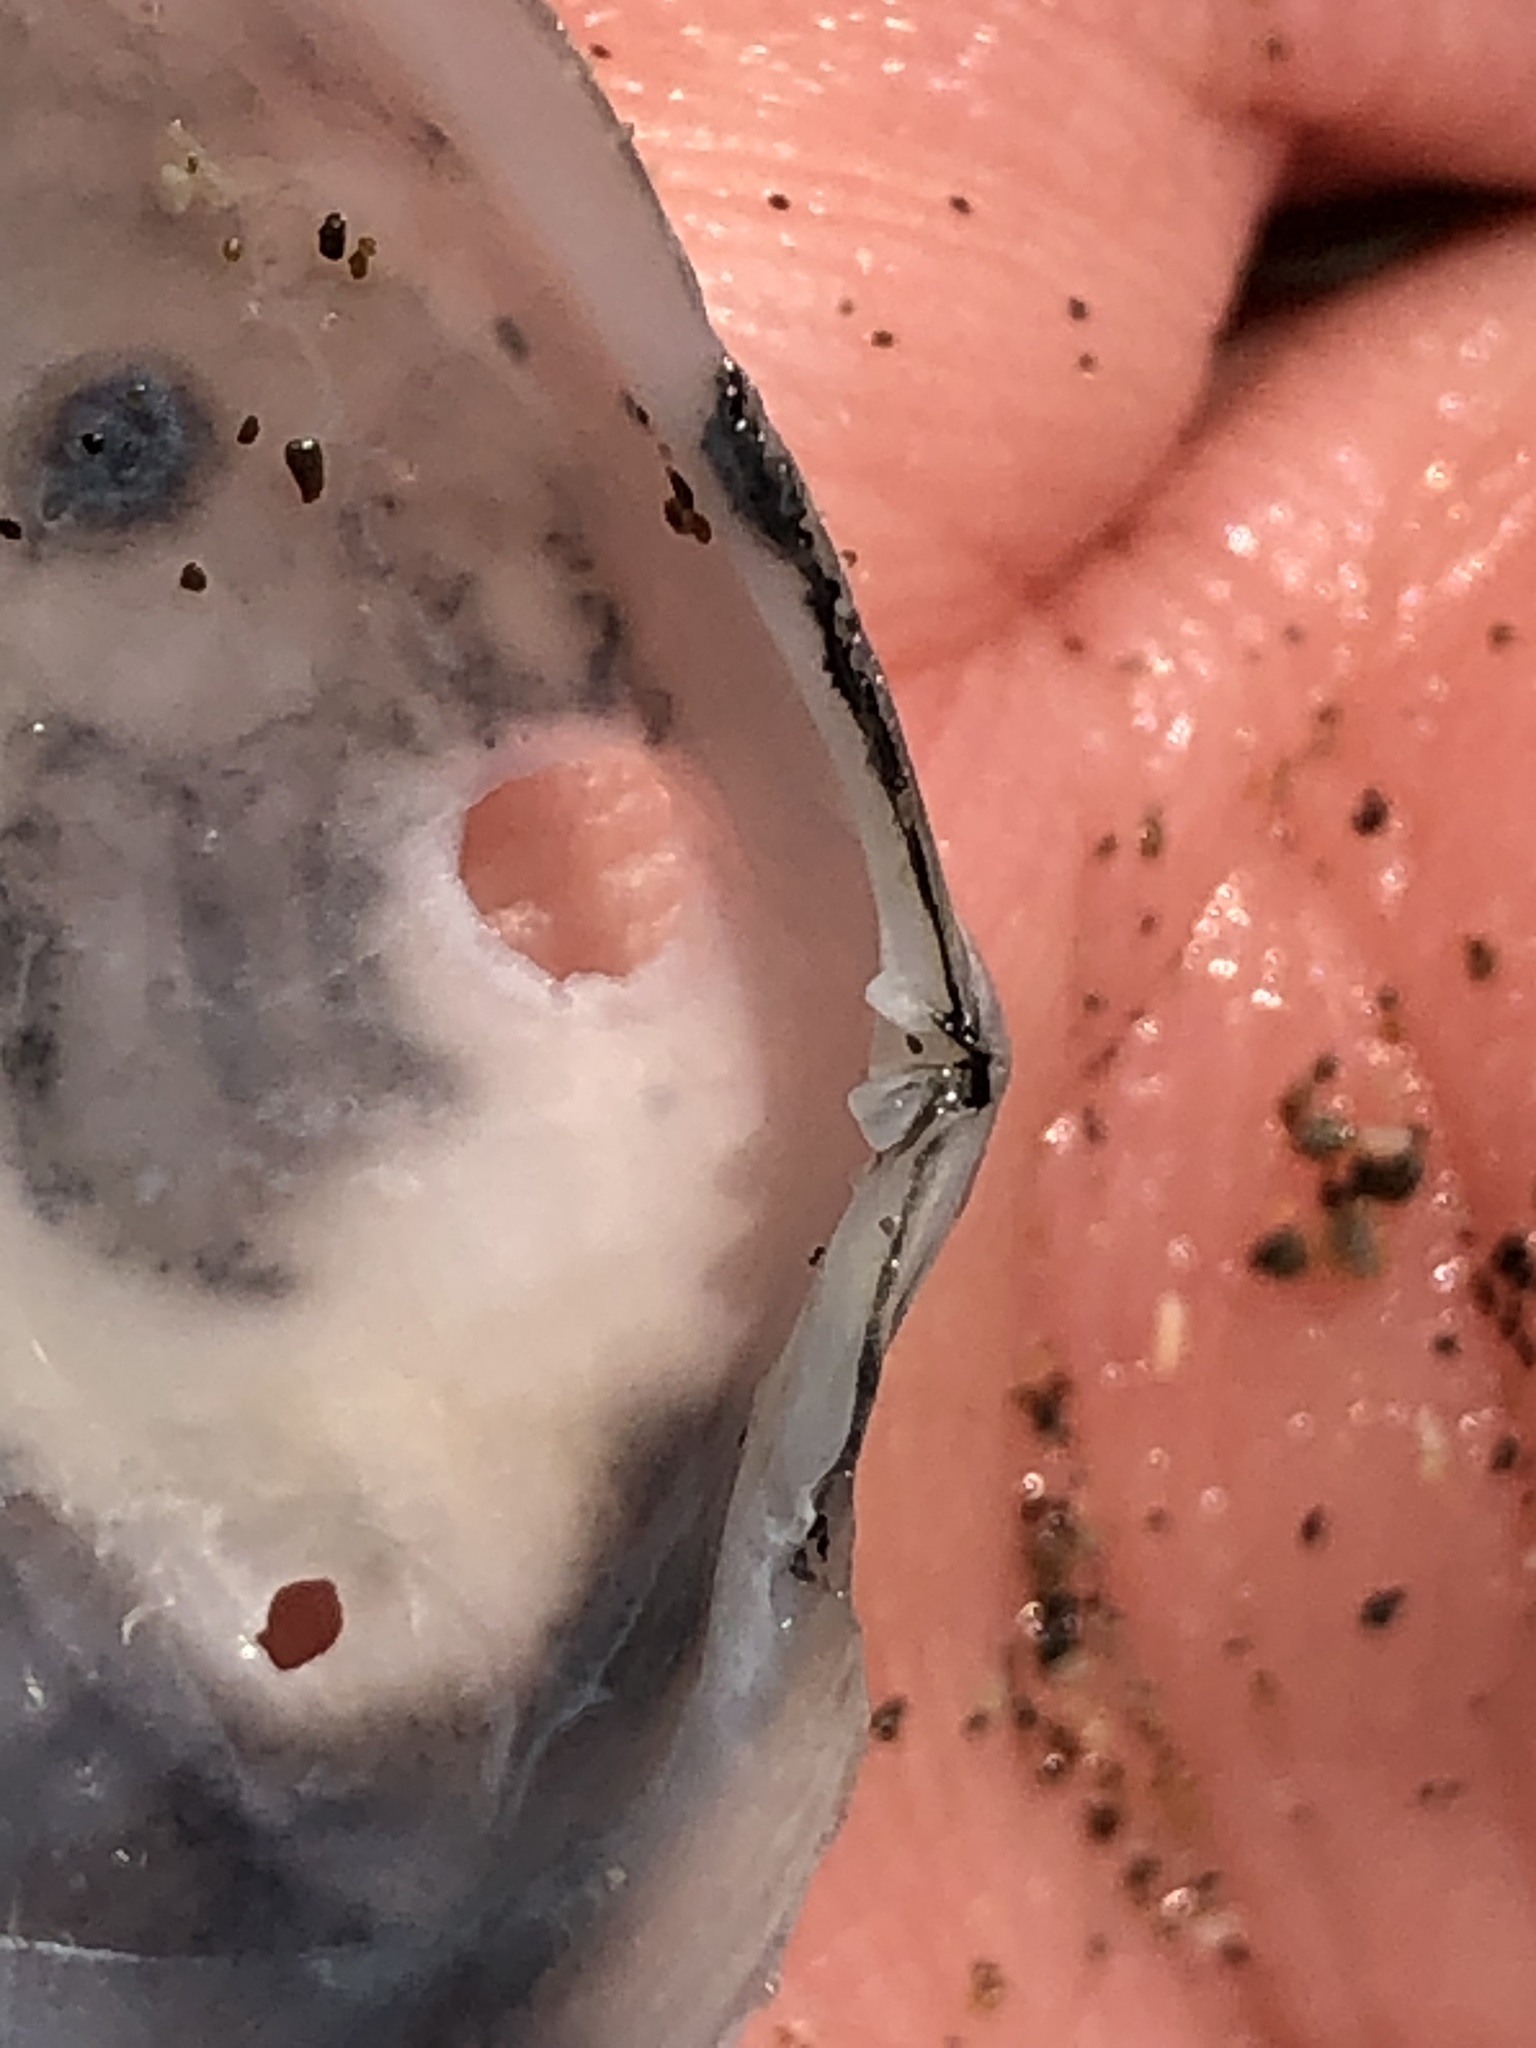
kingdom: Animalia
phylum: Mollusca
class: Bivalvia
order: Cardiida
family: Tellinidae
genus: Rexithaerus
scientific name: Rexithaerus secta
